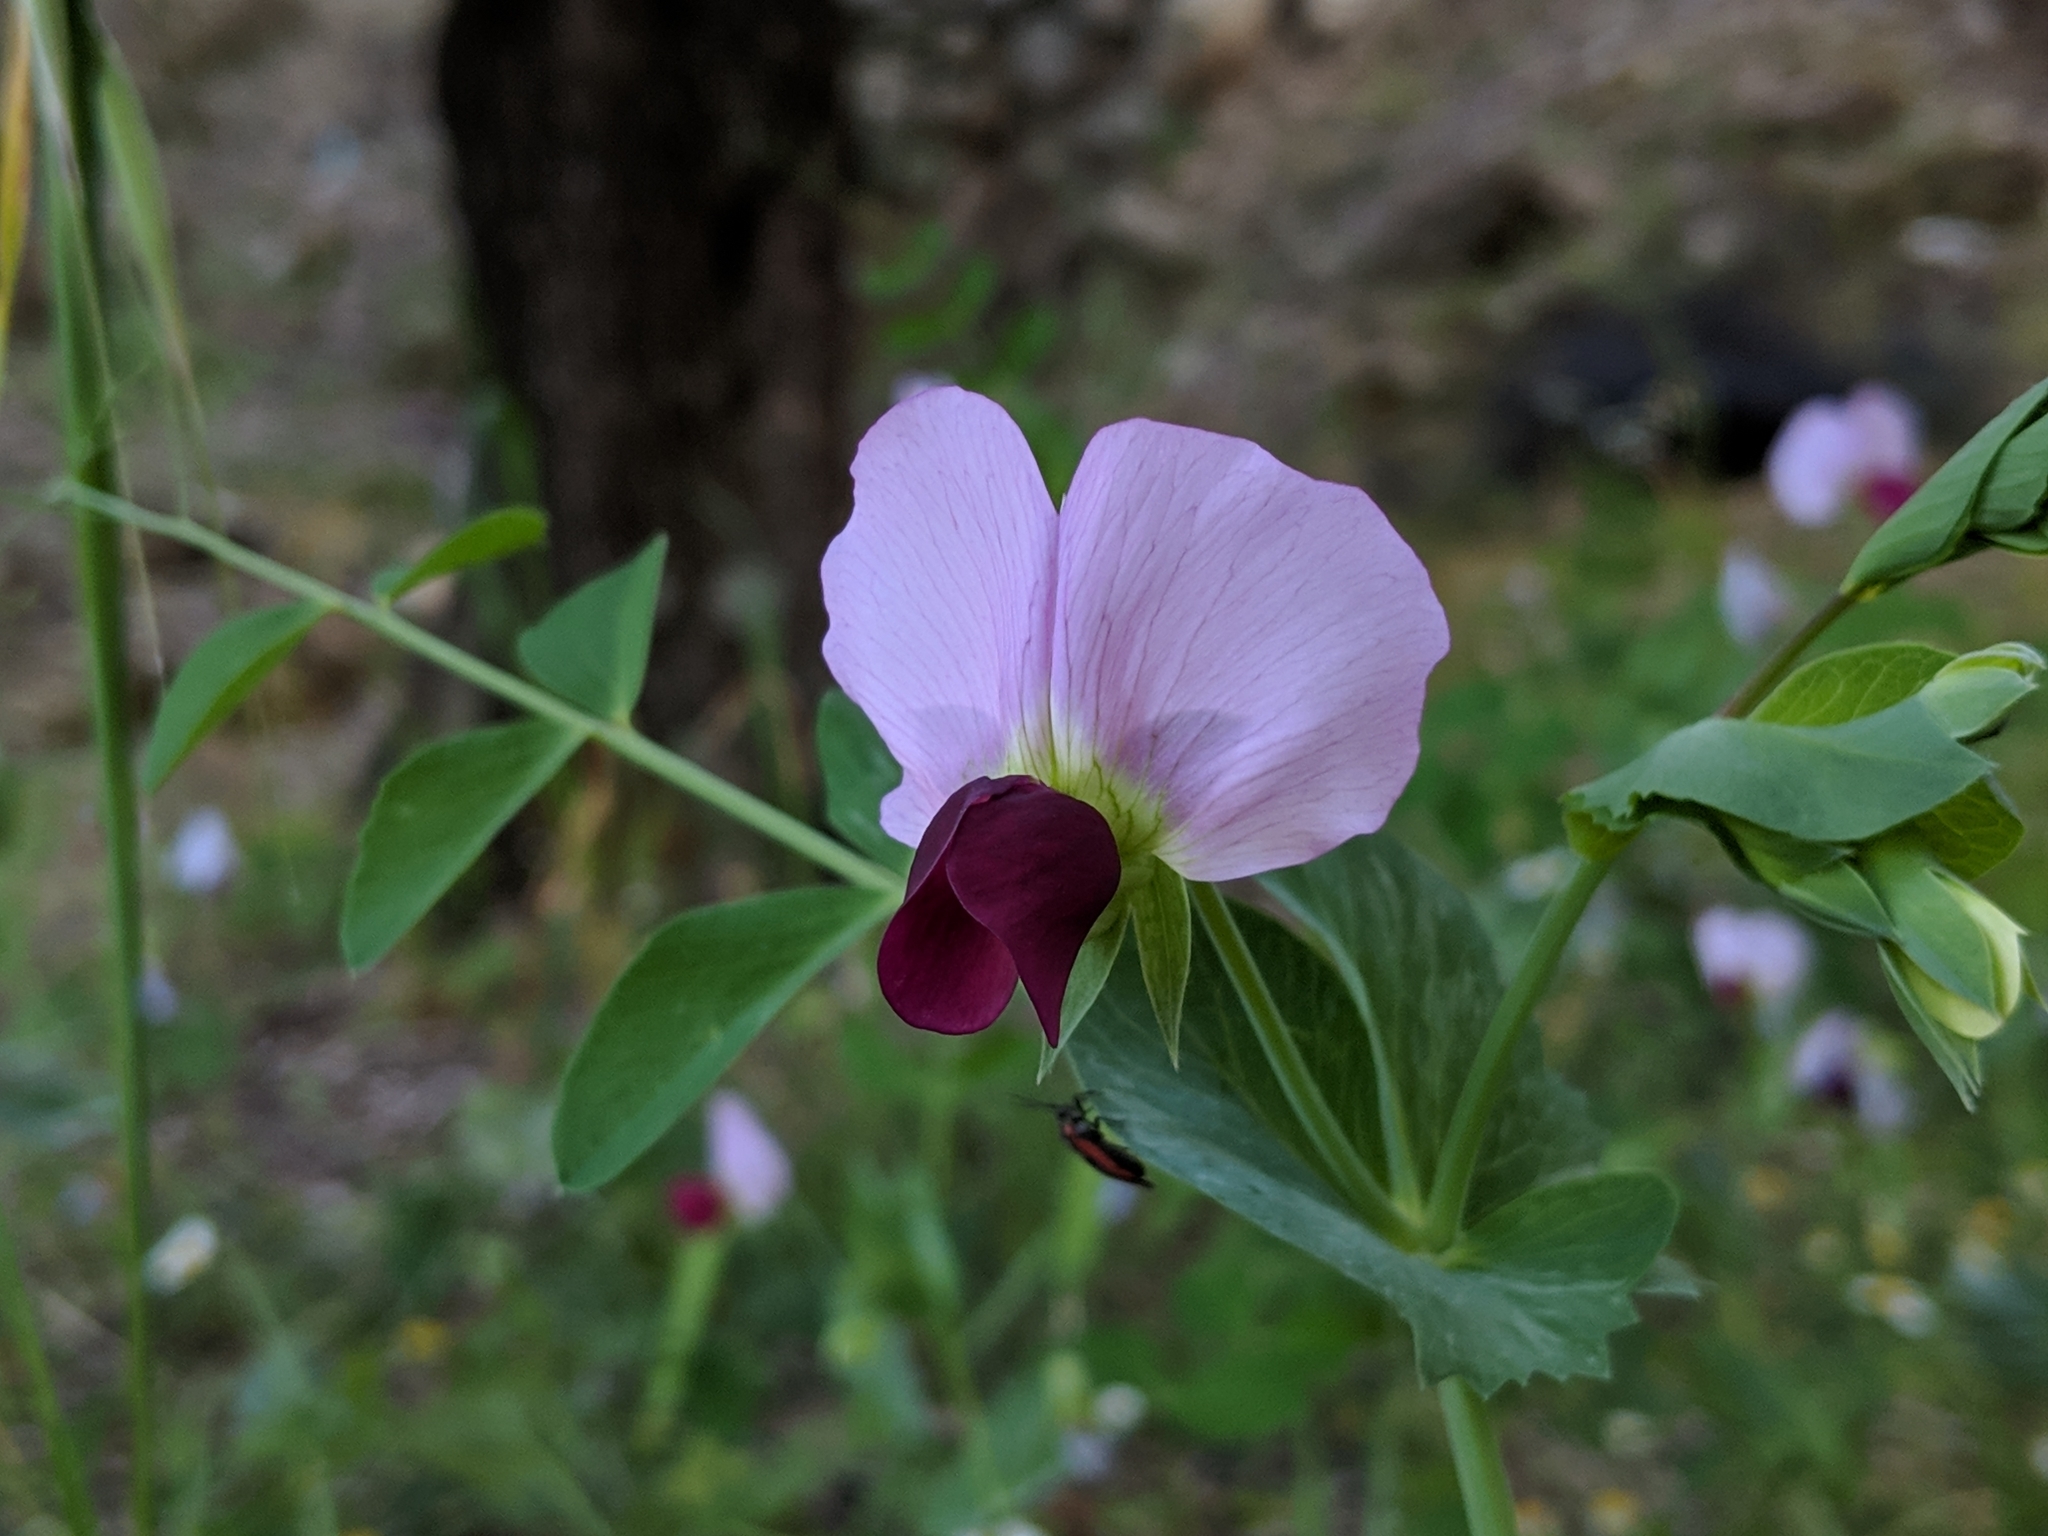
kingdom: Plantae
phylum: Tracheophyta
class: Magnoliopsida
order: Fabales
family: Fabaceae
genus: Lathyrus
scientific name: Lathyrus oleraceus
